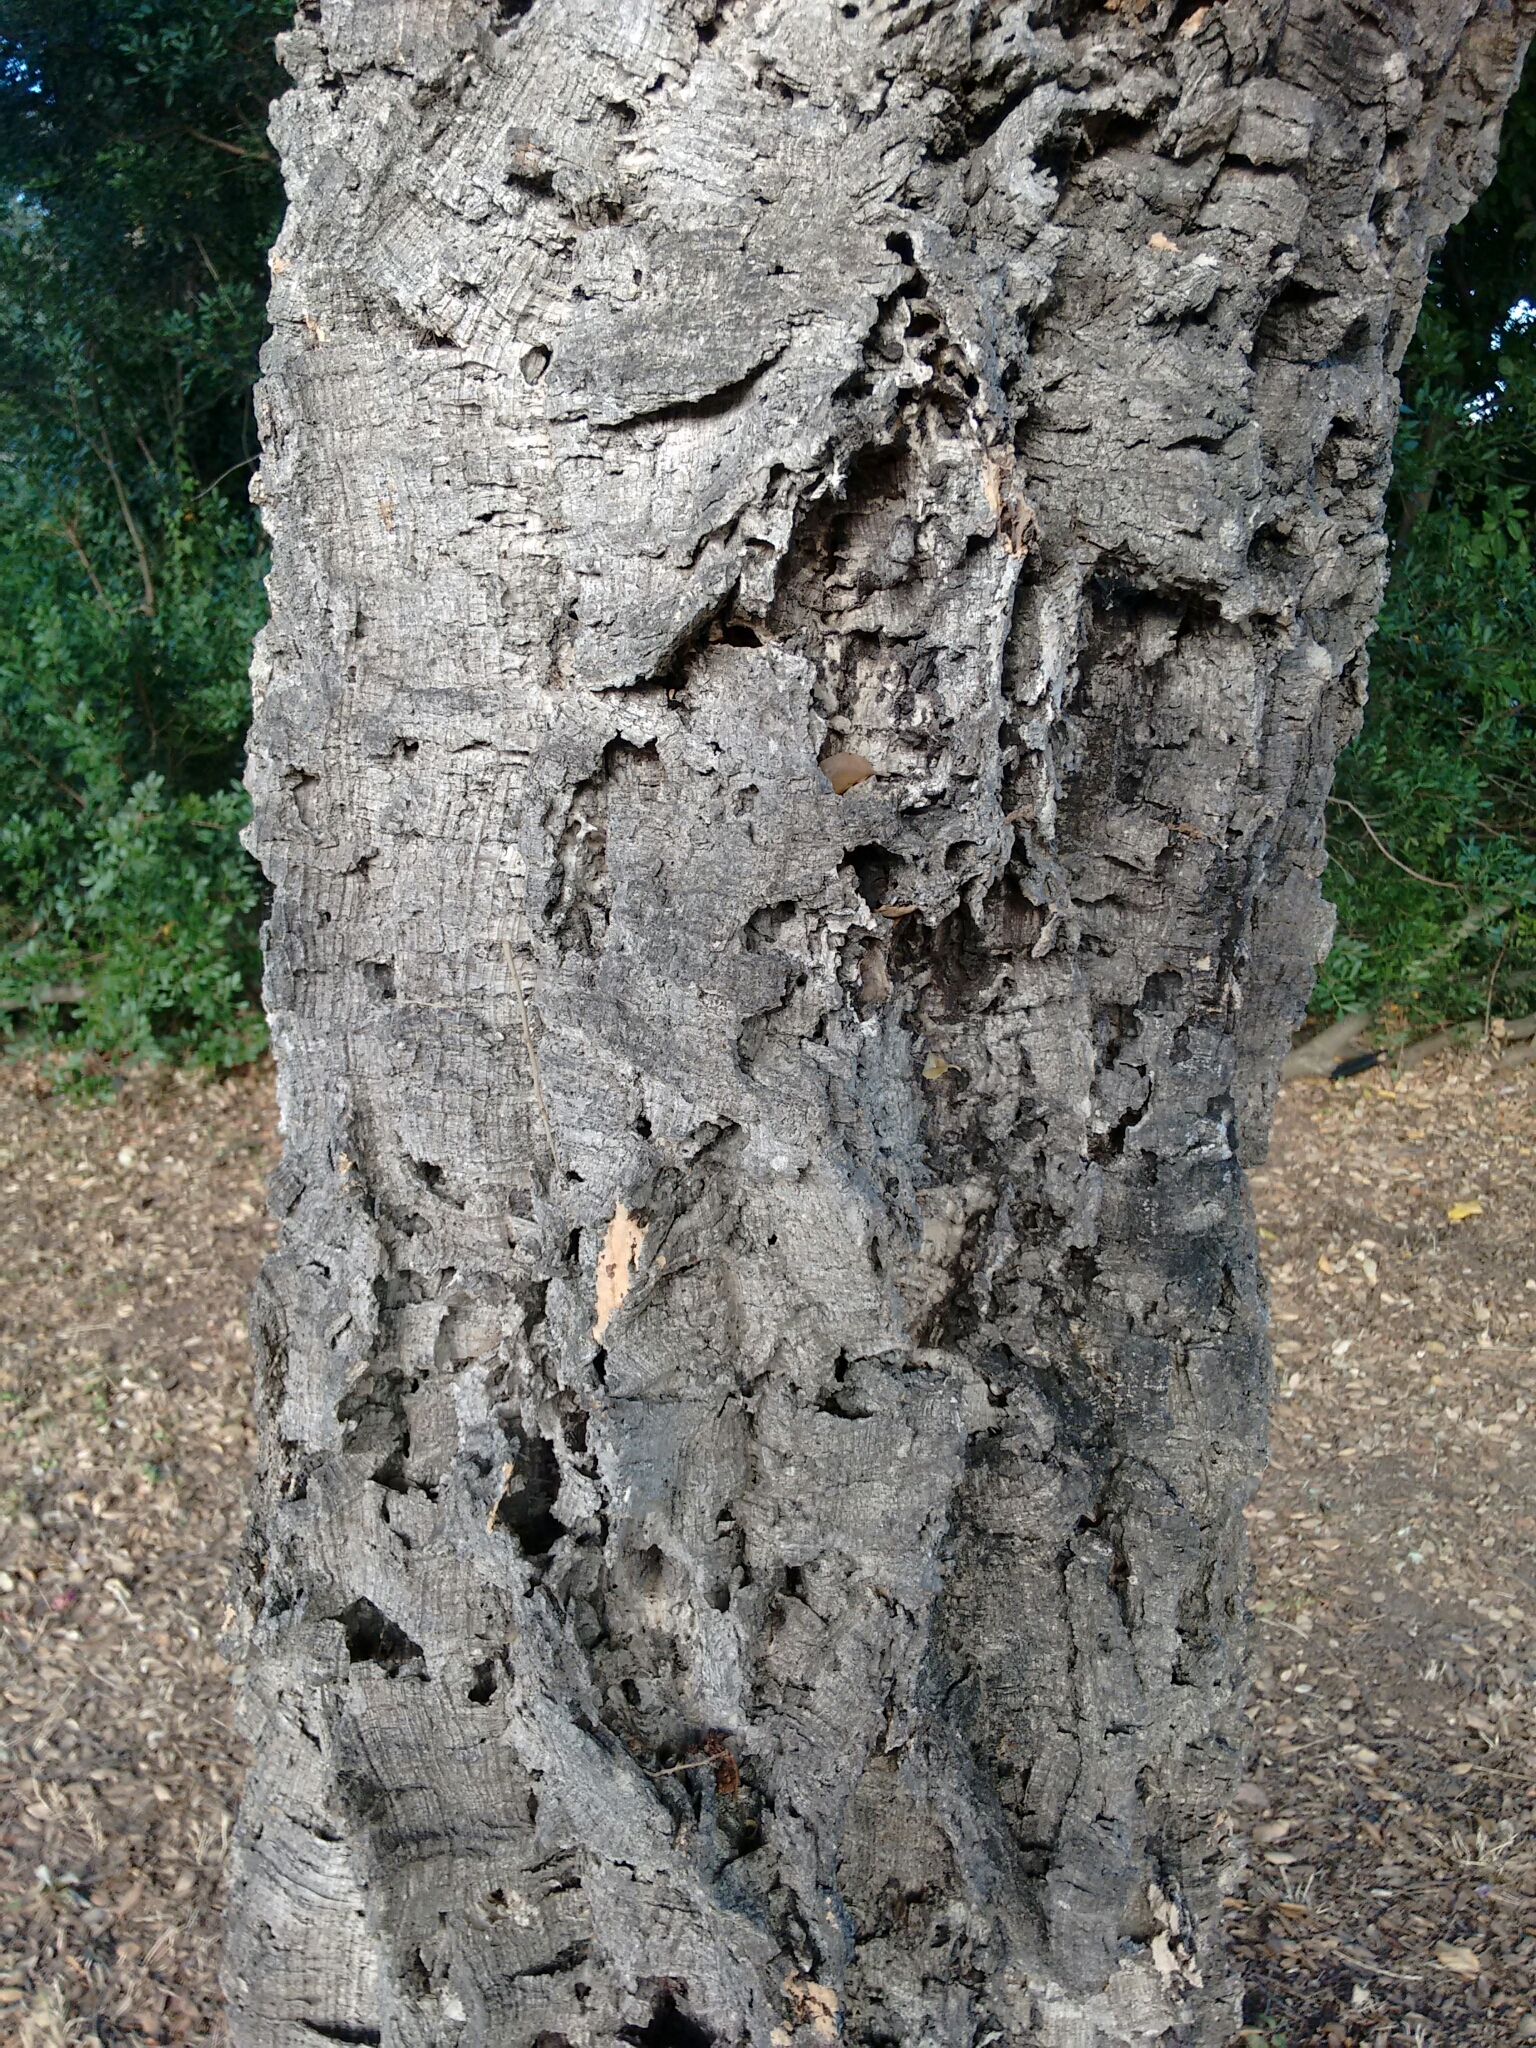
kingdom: Plantae
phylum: Tracheophyta
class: Magnoliopsida
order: Fagales
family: Fagaceae
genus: Quercus
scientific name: Quercus suber
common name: Cork oak
